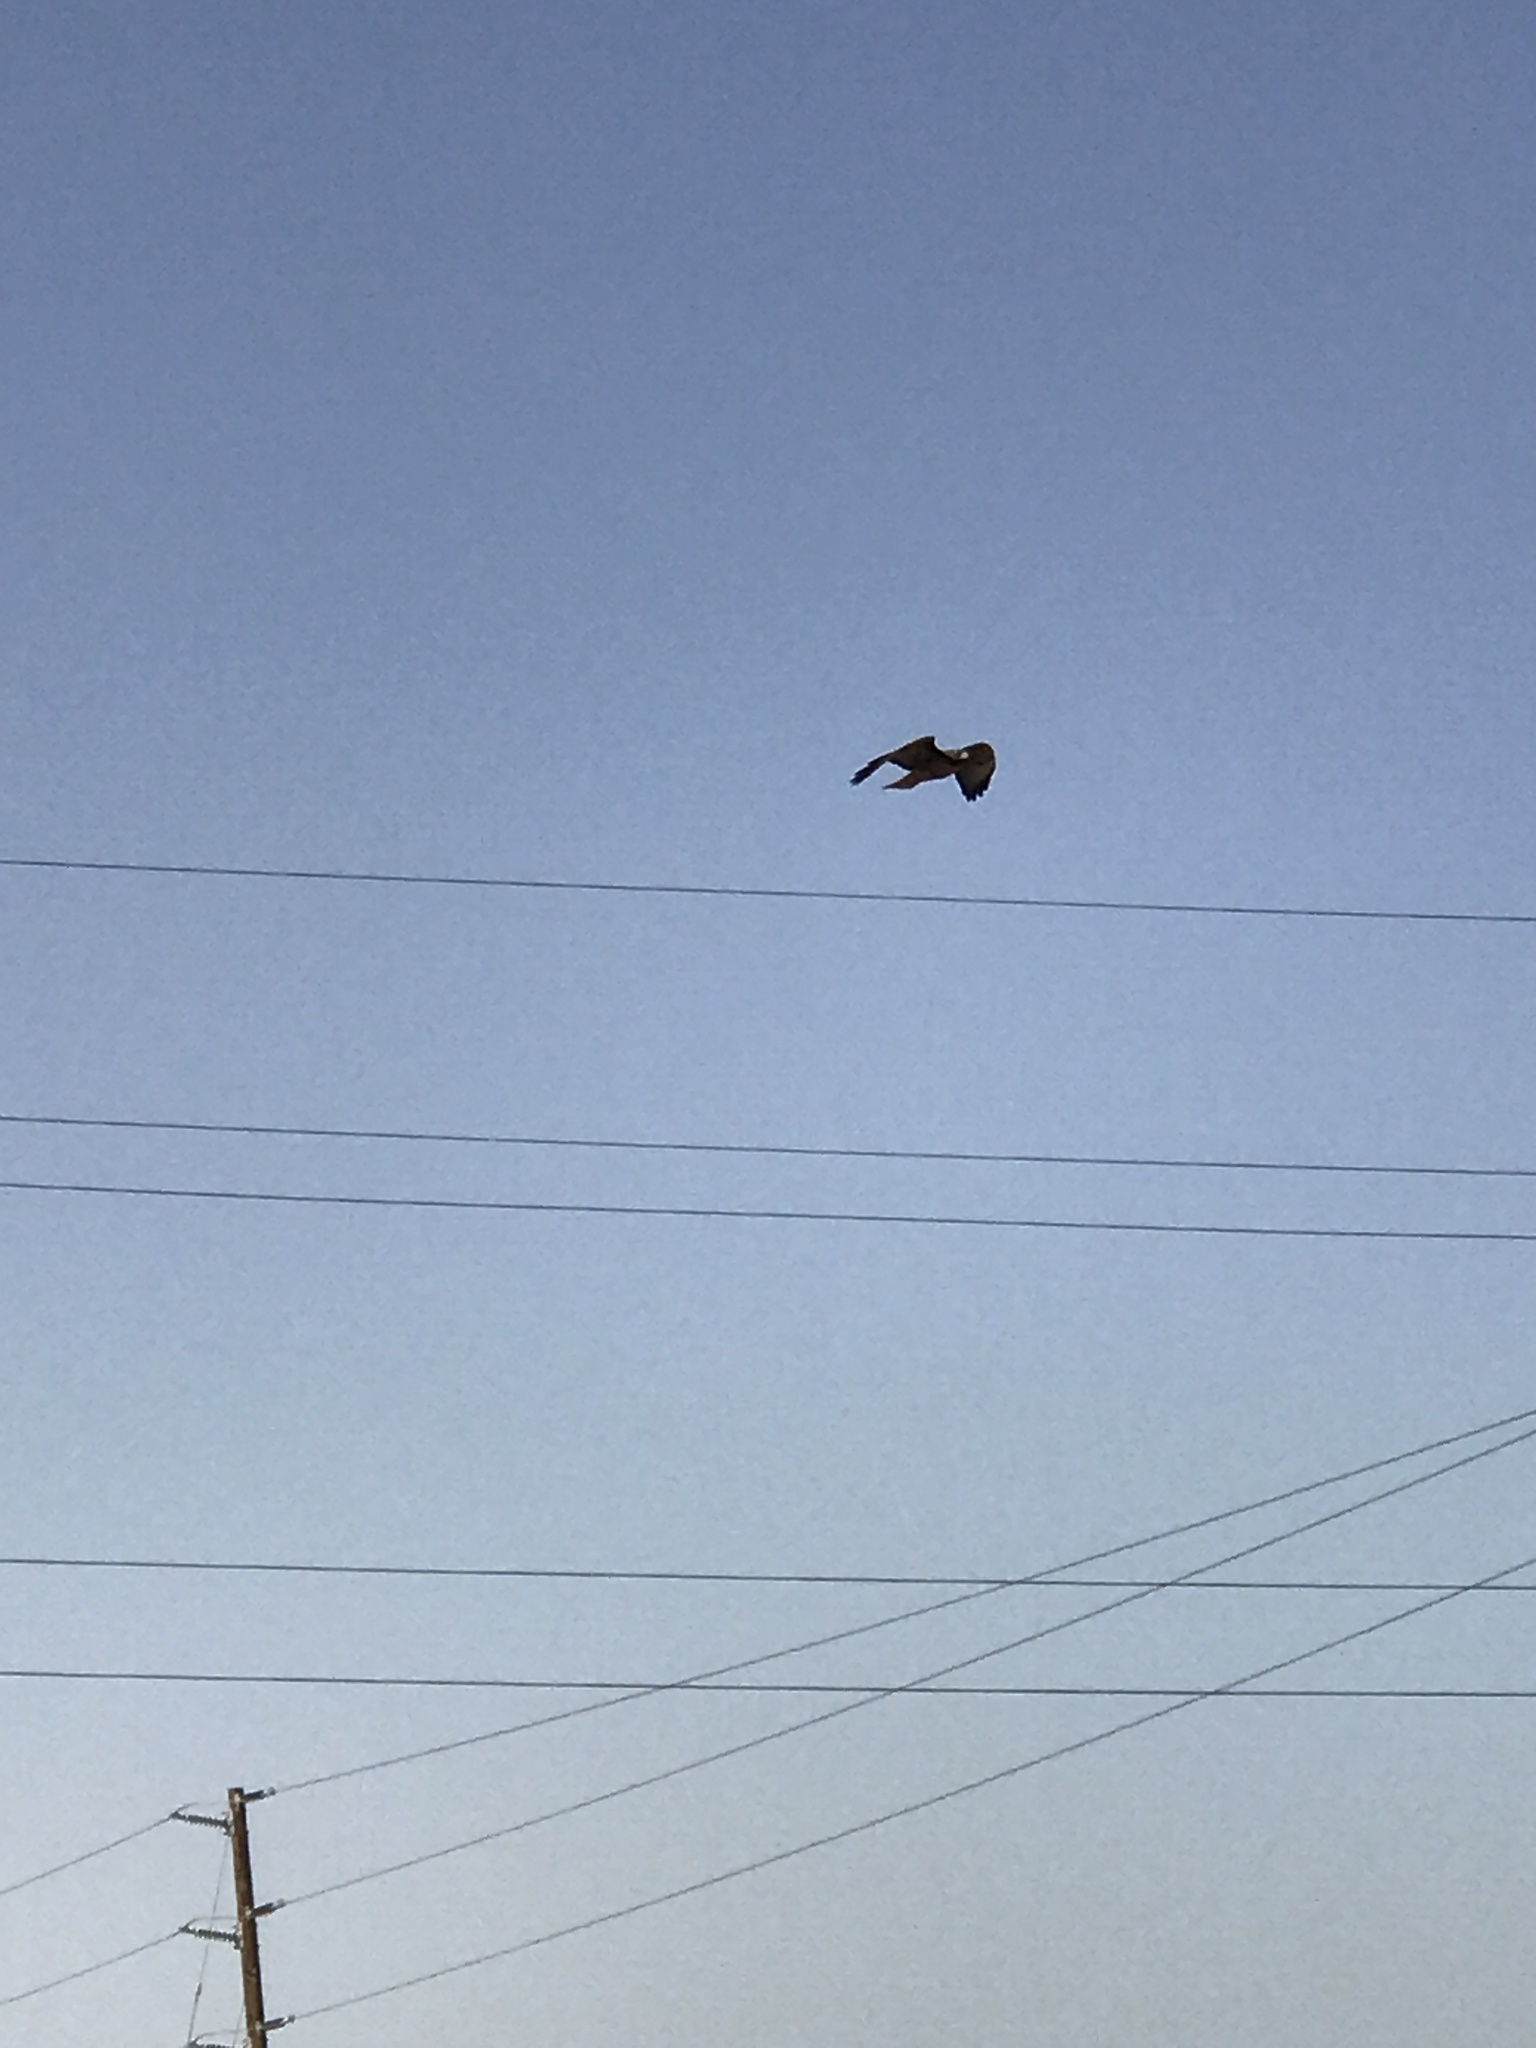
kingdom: Animalia
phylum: Chordata
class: Aves
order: Accipitriformes
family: Accipitridae
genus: Buteo
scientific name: Buteo jamaicensis
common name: Red-tailed hawk
